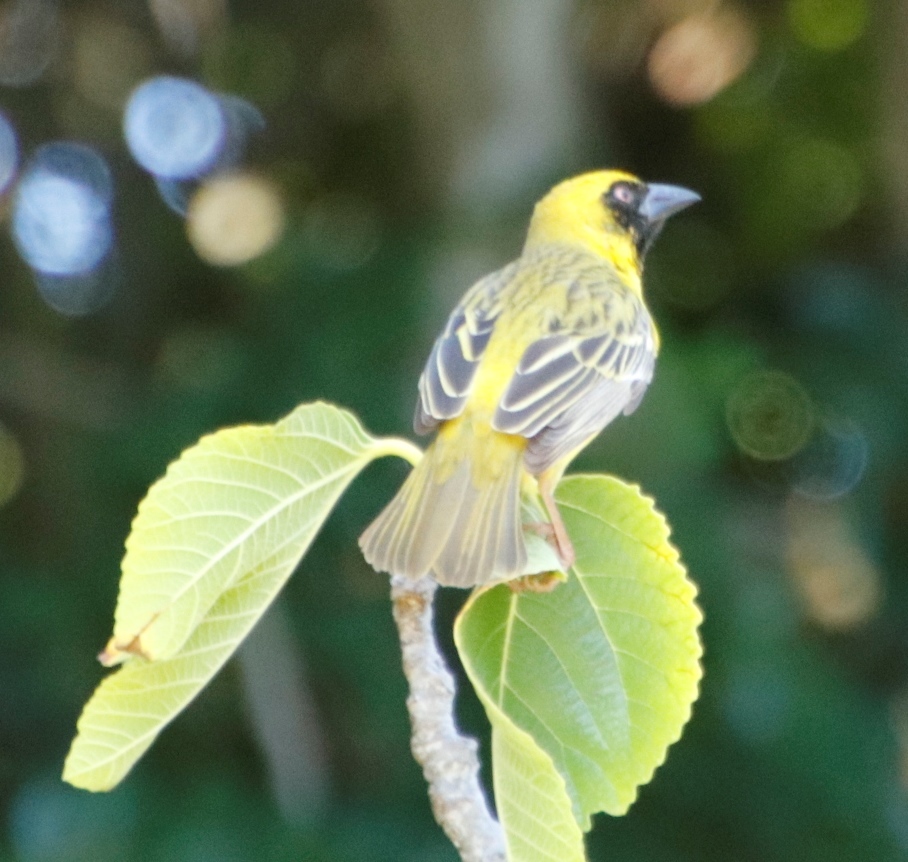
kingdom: Animalia
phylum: Chordata
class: Aves
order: Passeriformes
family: Ploceidae
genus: Ploceus
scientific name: Ploceus velatus
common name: Southern masked weaver
